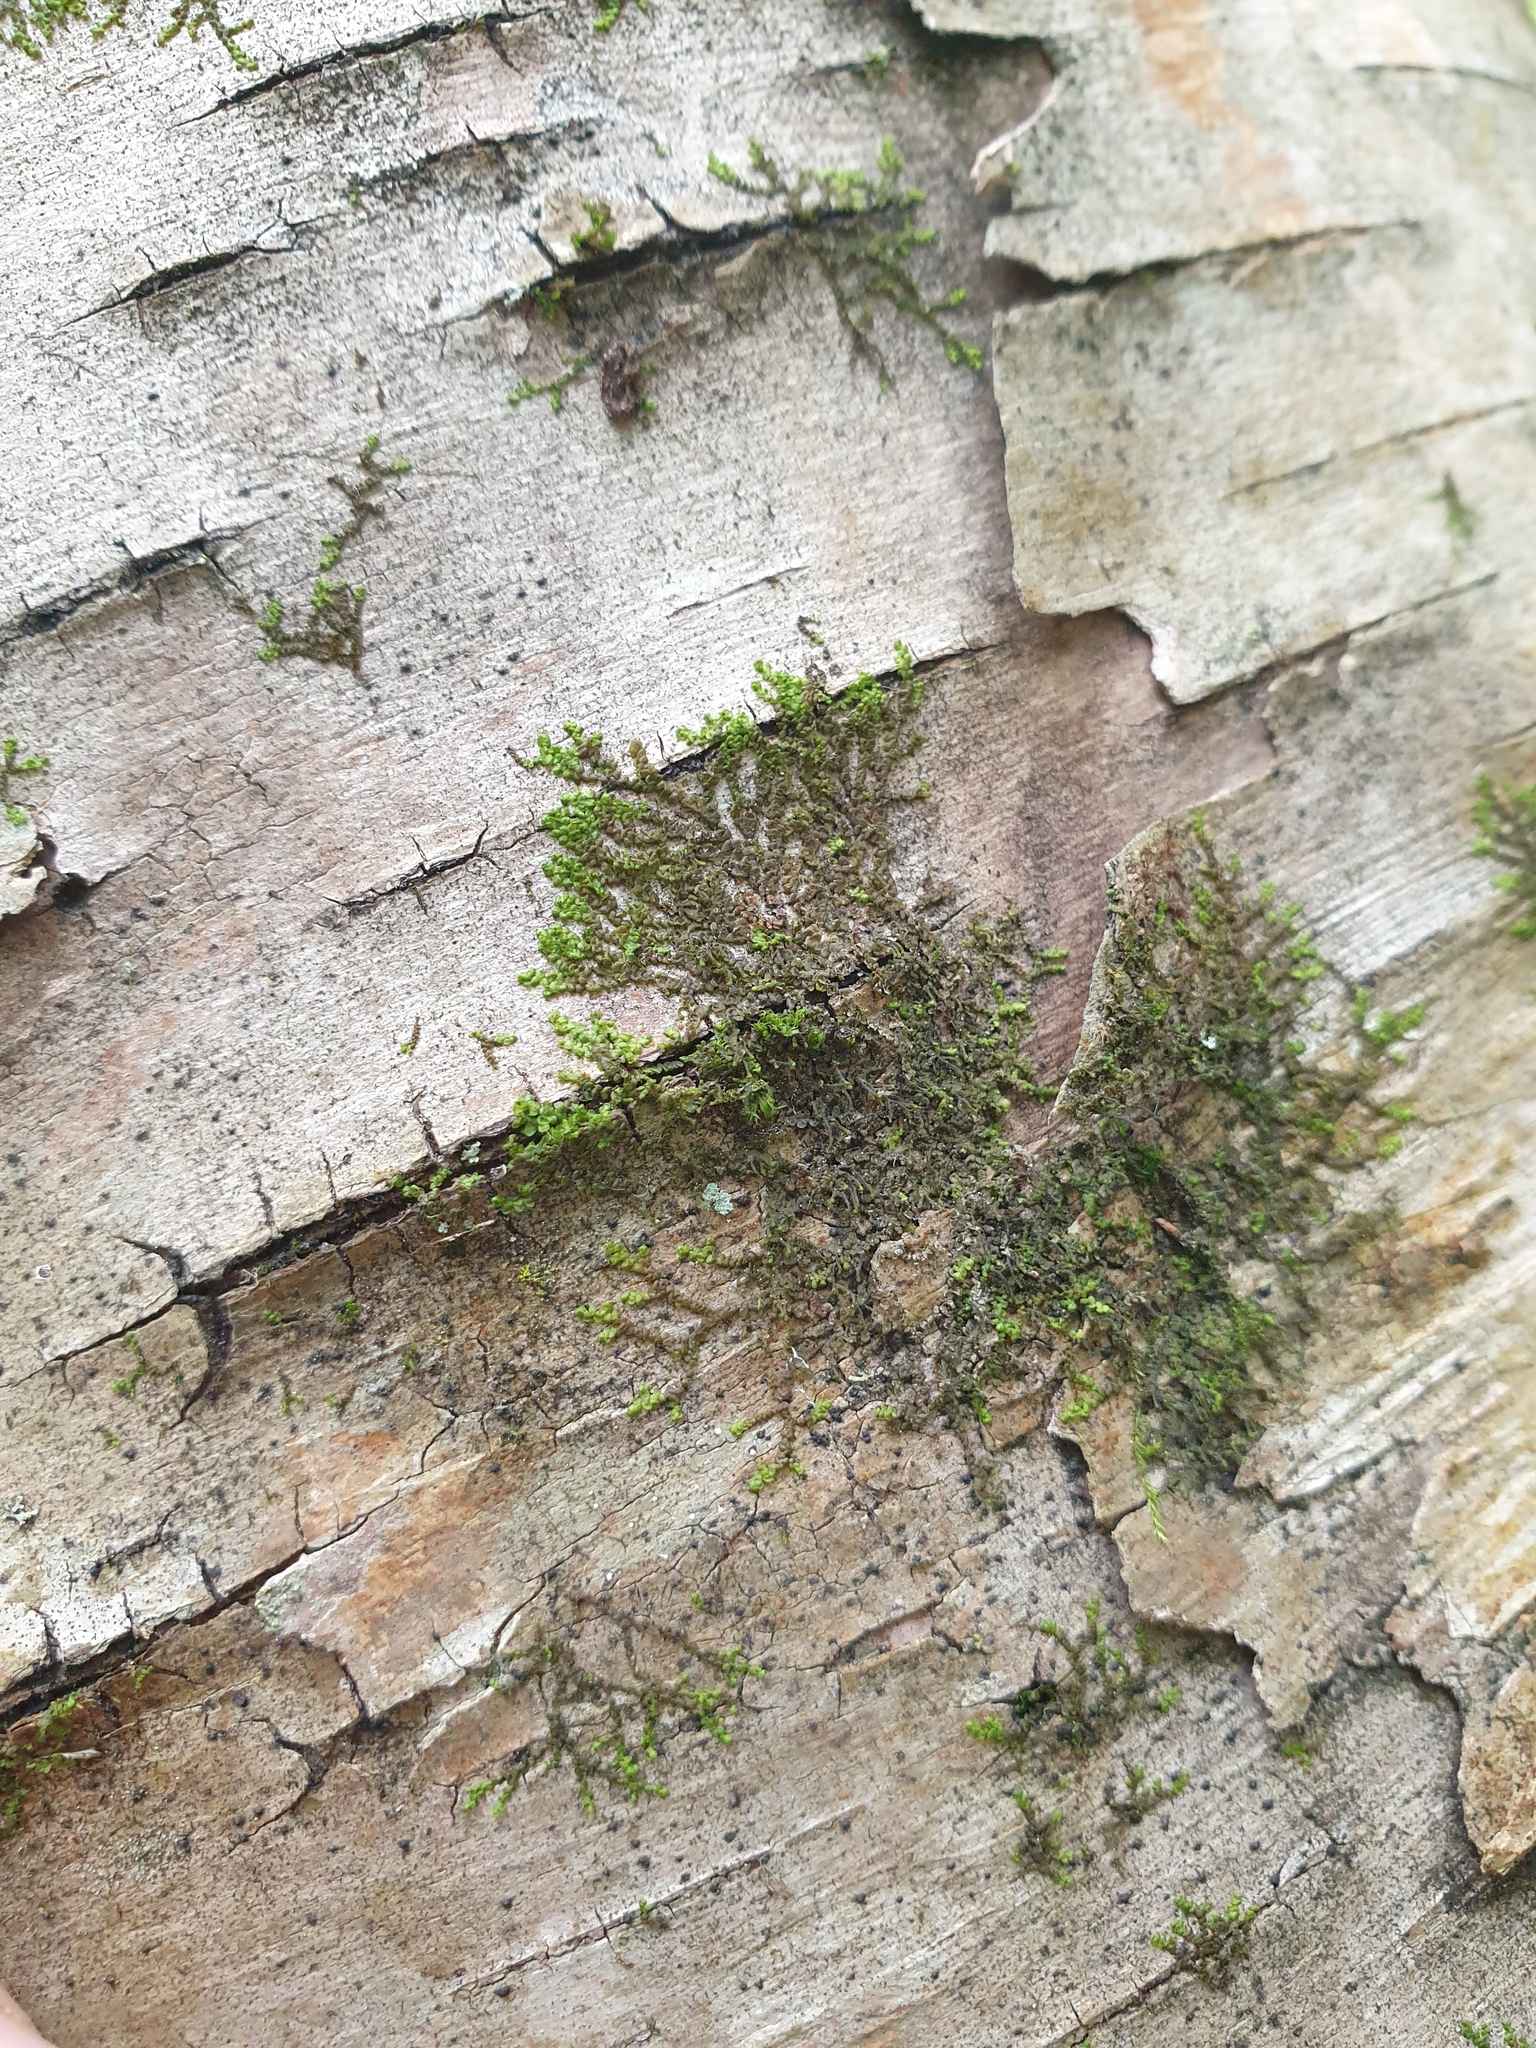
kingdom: Plantae
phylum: Marchantiophyta
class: Jungermanniopsida
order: Porellales
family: Frullaniaceae
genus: Frullania
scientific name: Frullania bolanderi
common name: Bolander s scalewort
